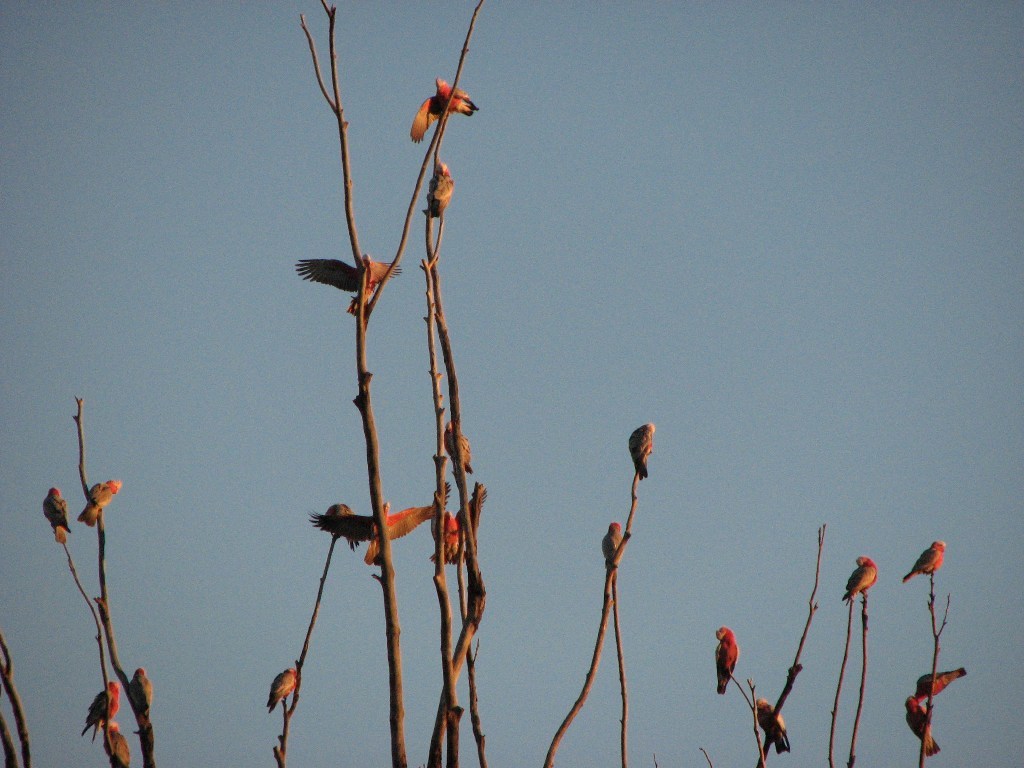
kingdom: Animalia
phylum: Chordata
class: Aves
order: Psittaciformes
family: Psittacidae
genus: Eolophus
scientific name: Eolophus roseicapilla
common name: Galah
